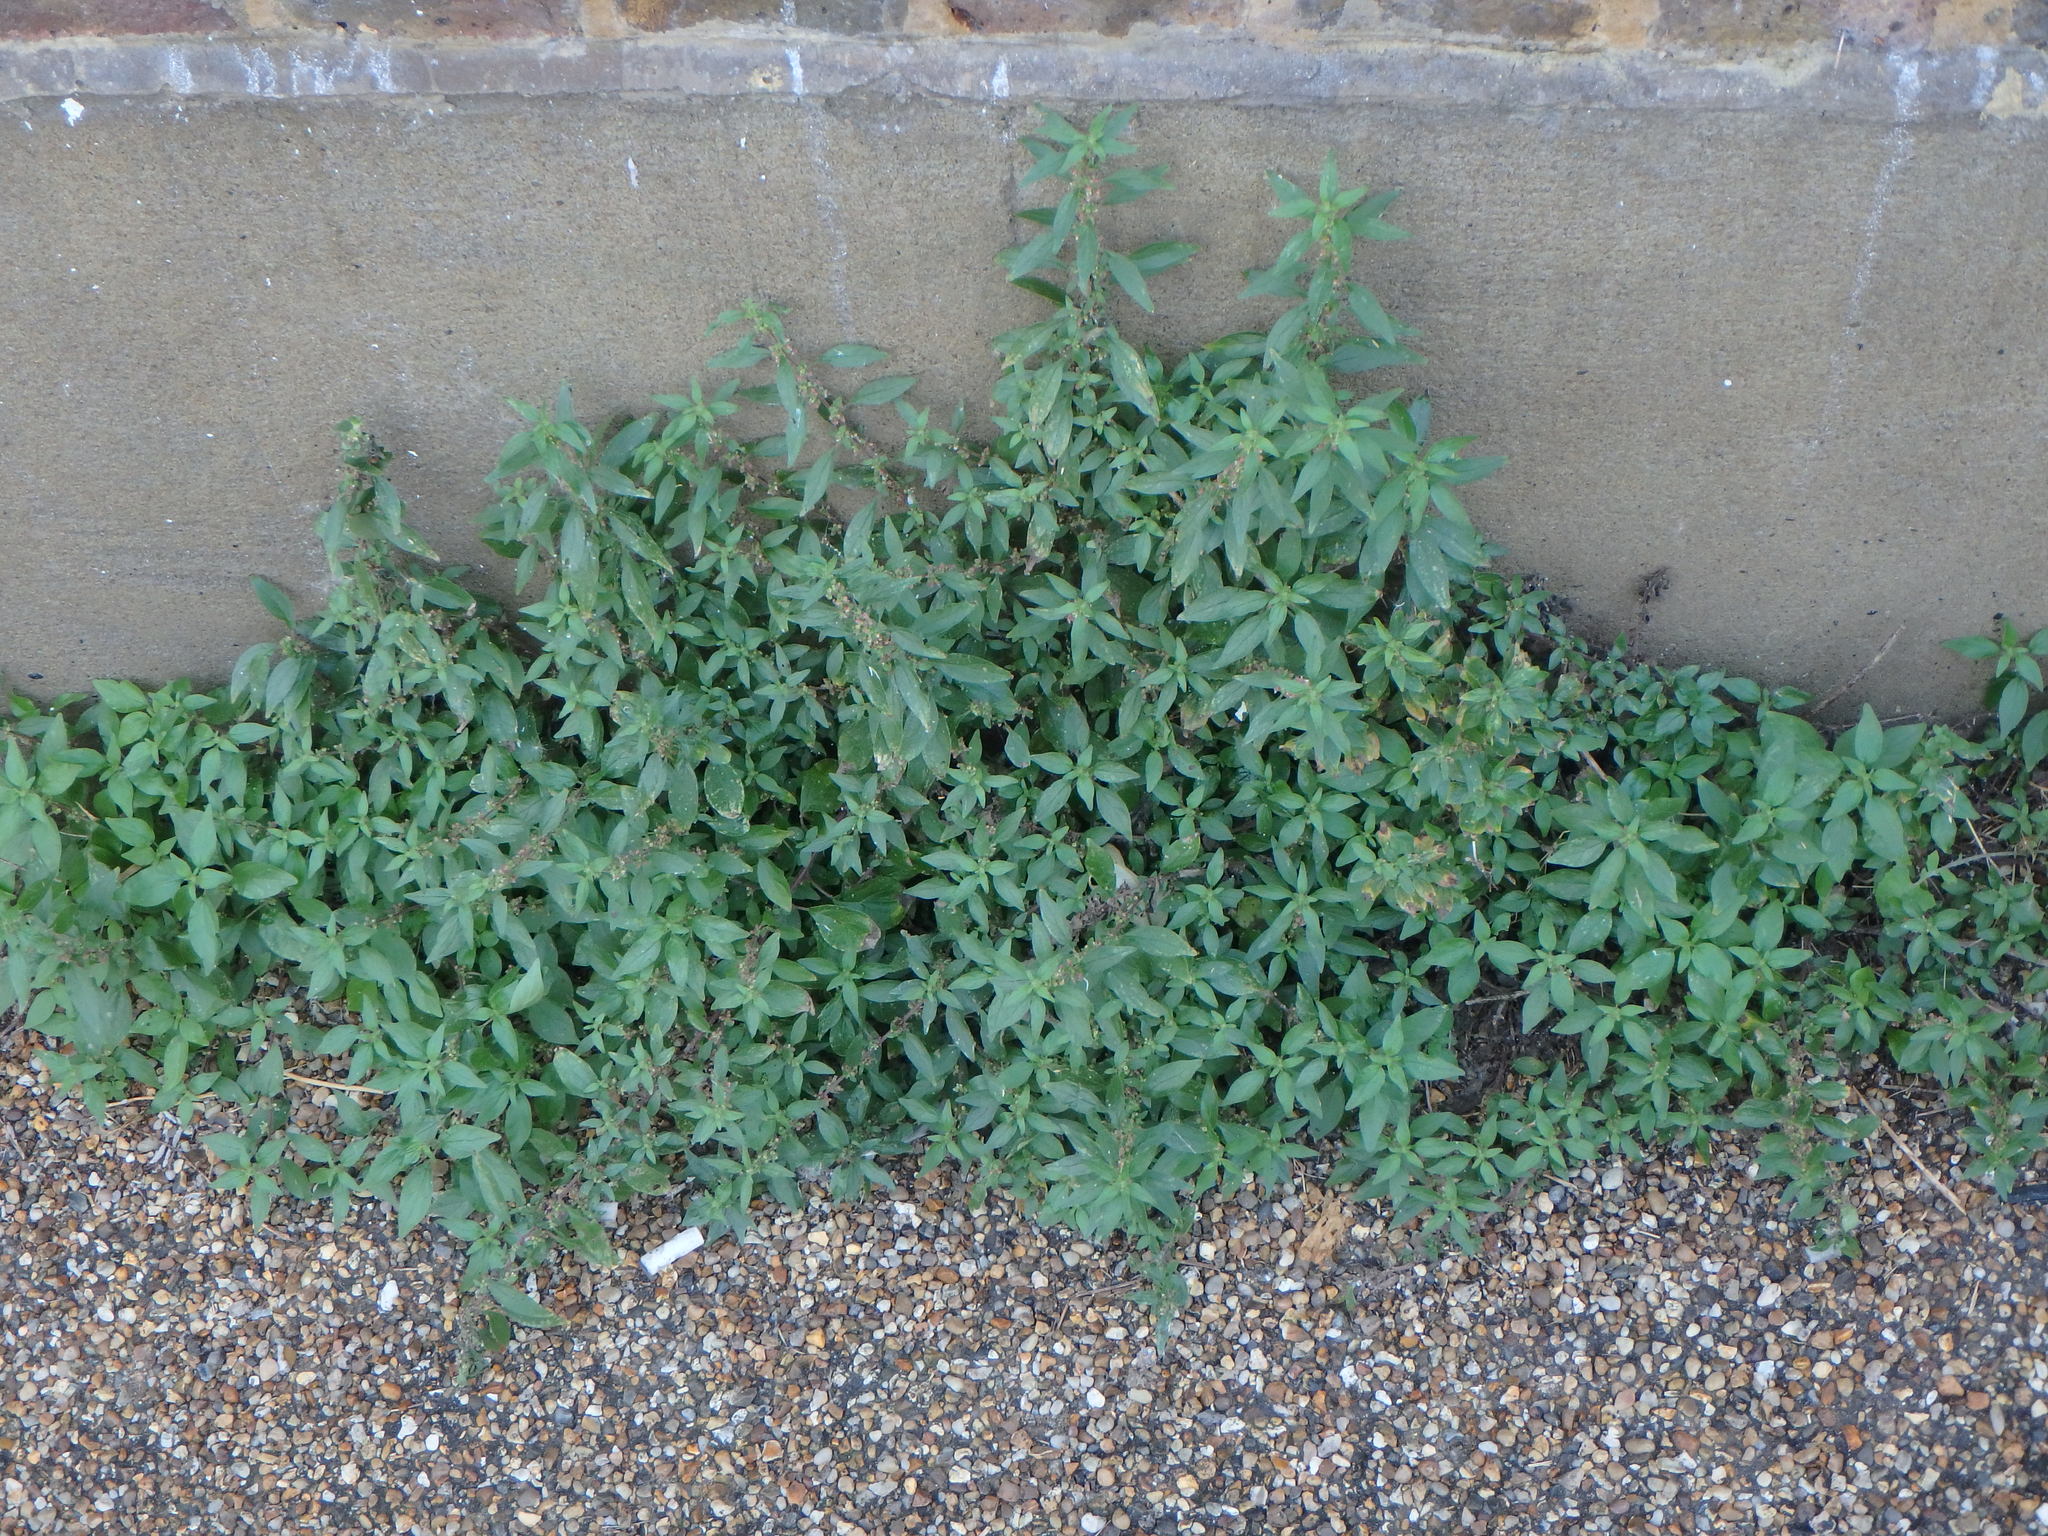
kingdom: Plantae
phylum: Tracheophyta
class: Magnoliopsida
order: Rosales
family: Urticaceae
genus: Parietaria
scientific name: Parietaria judaica
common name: Pellitory-of-the-wall
